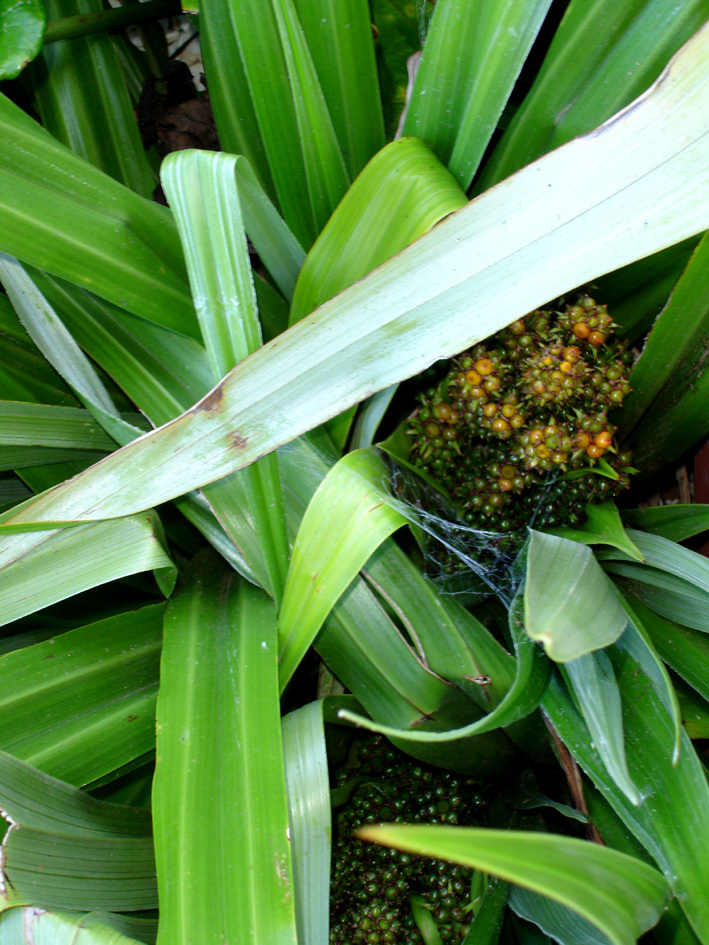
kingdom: Plantae
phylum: Tracheophyta
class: Liliopsida
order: Asparagales
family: Asteliaceae
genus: Astelia
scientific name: Astelia chathamica
